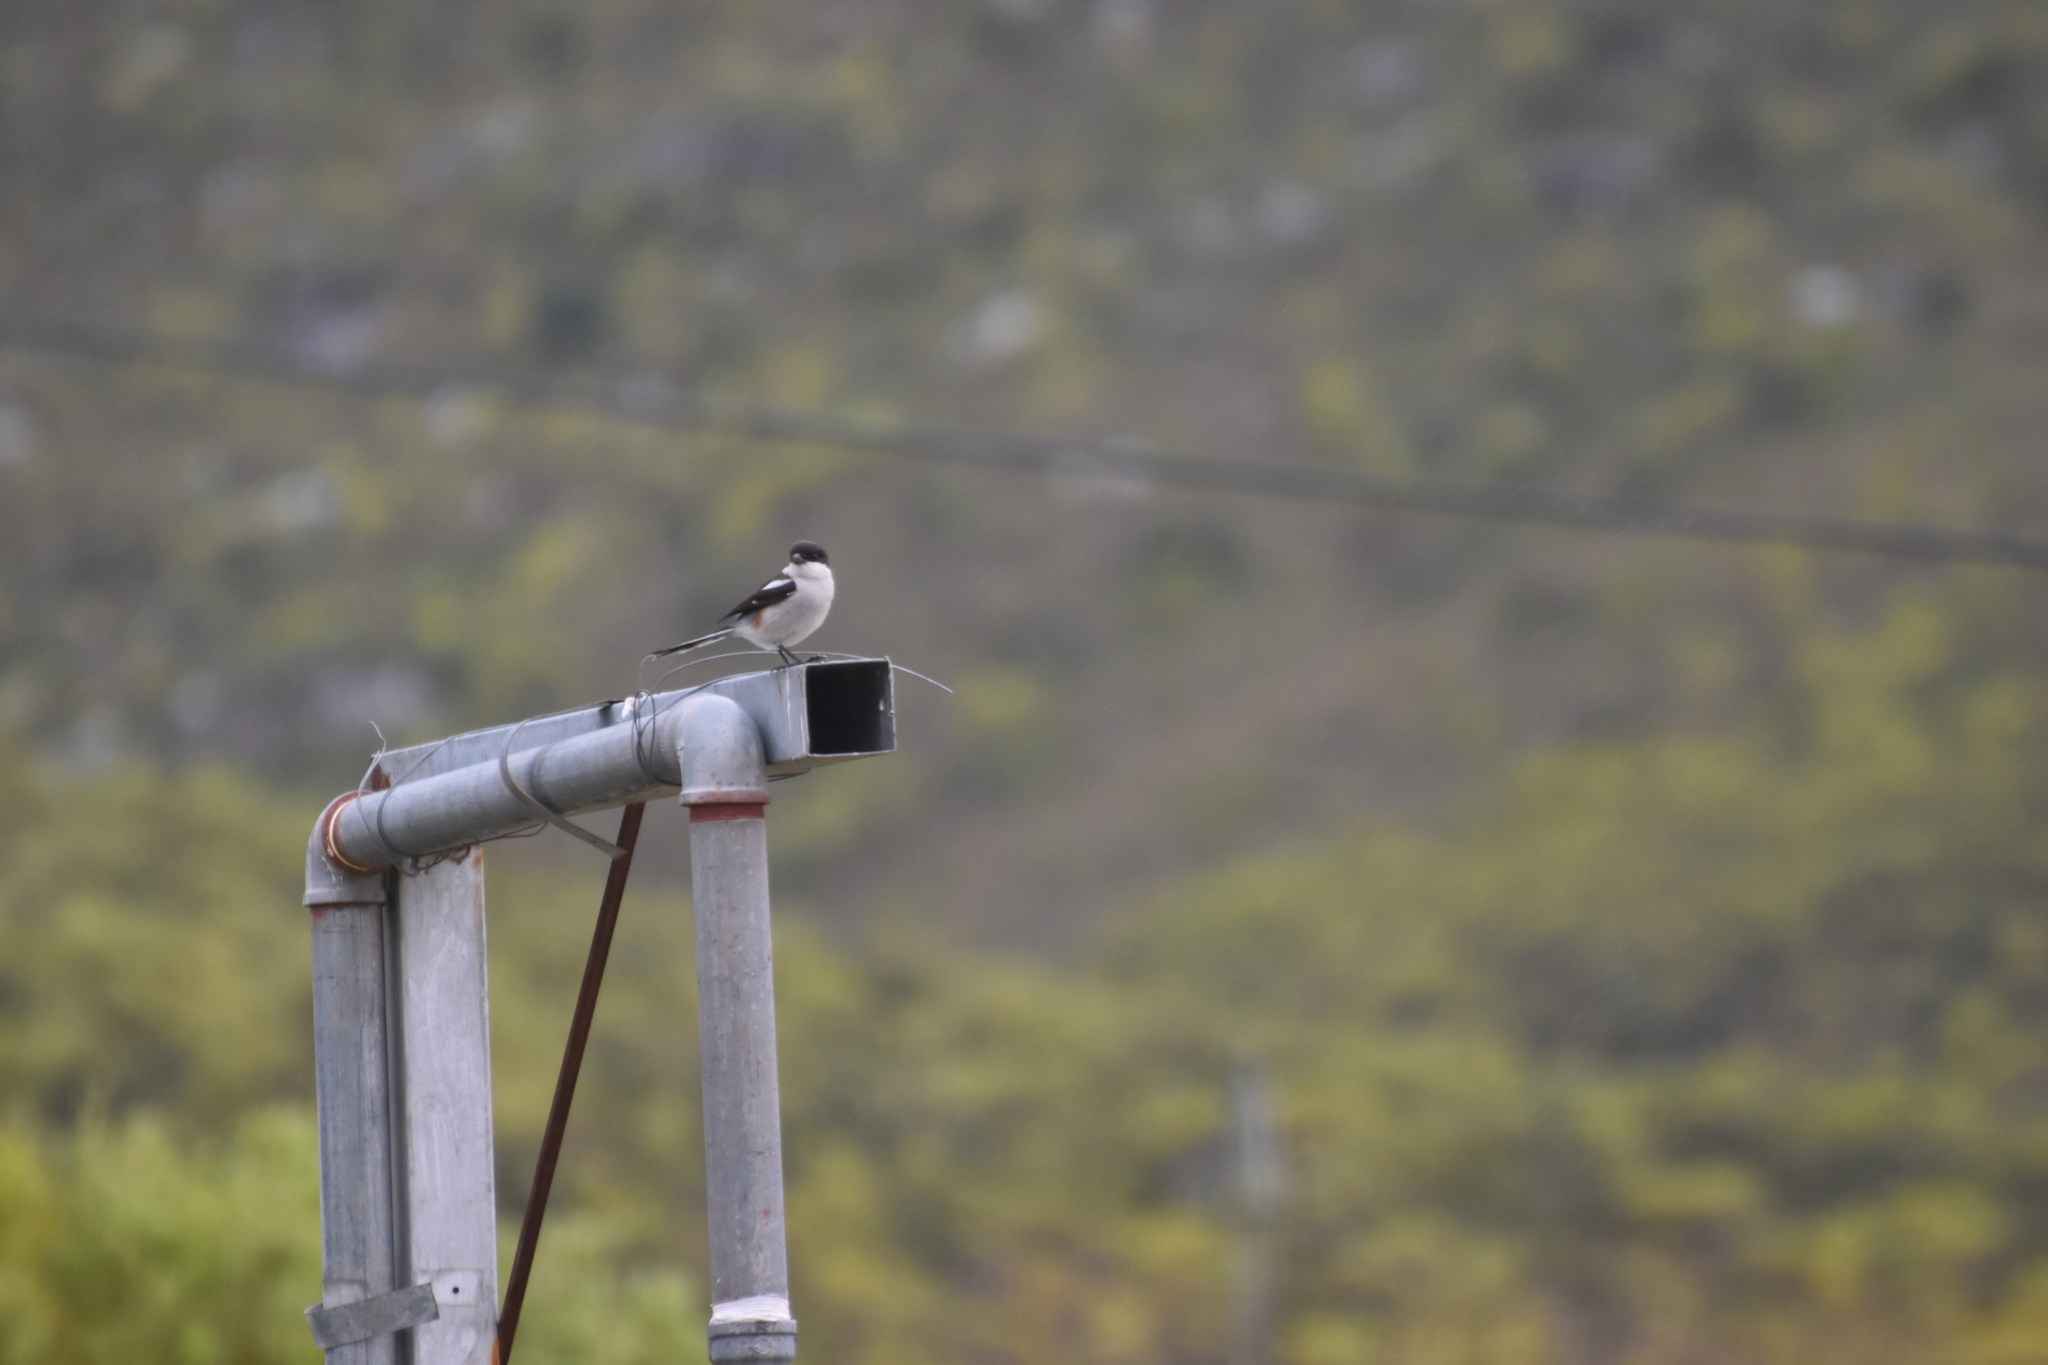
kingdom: Animalia
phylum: Chordata
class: Aves
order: Passeriformes
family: Laniidae
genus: Lanius
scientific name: Lanius collaris
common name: Southern fiscal
